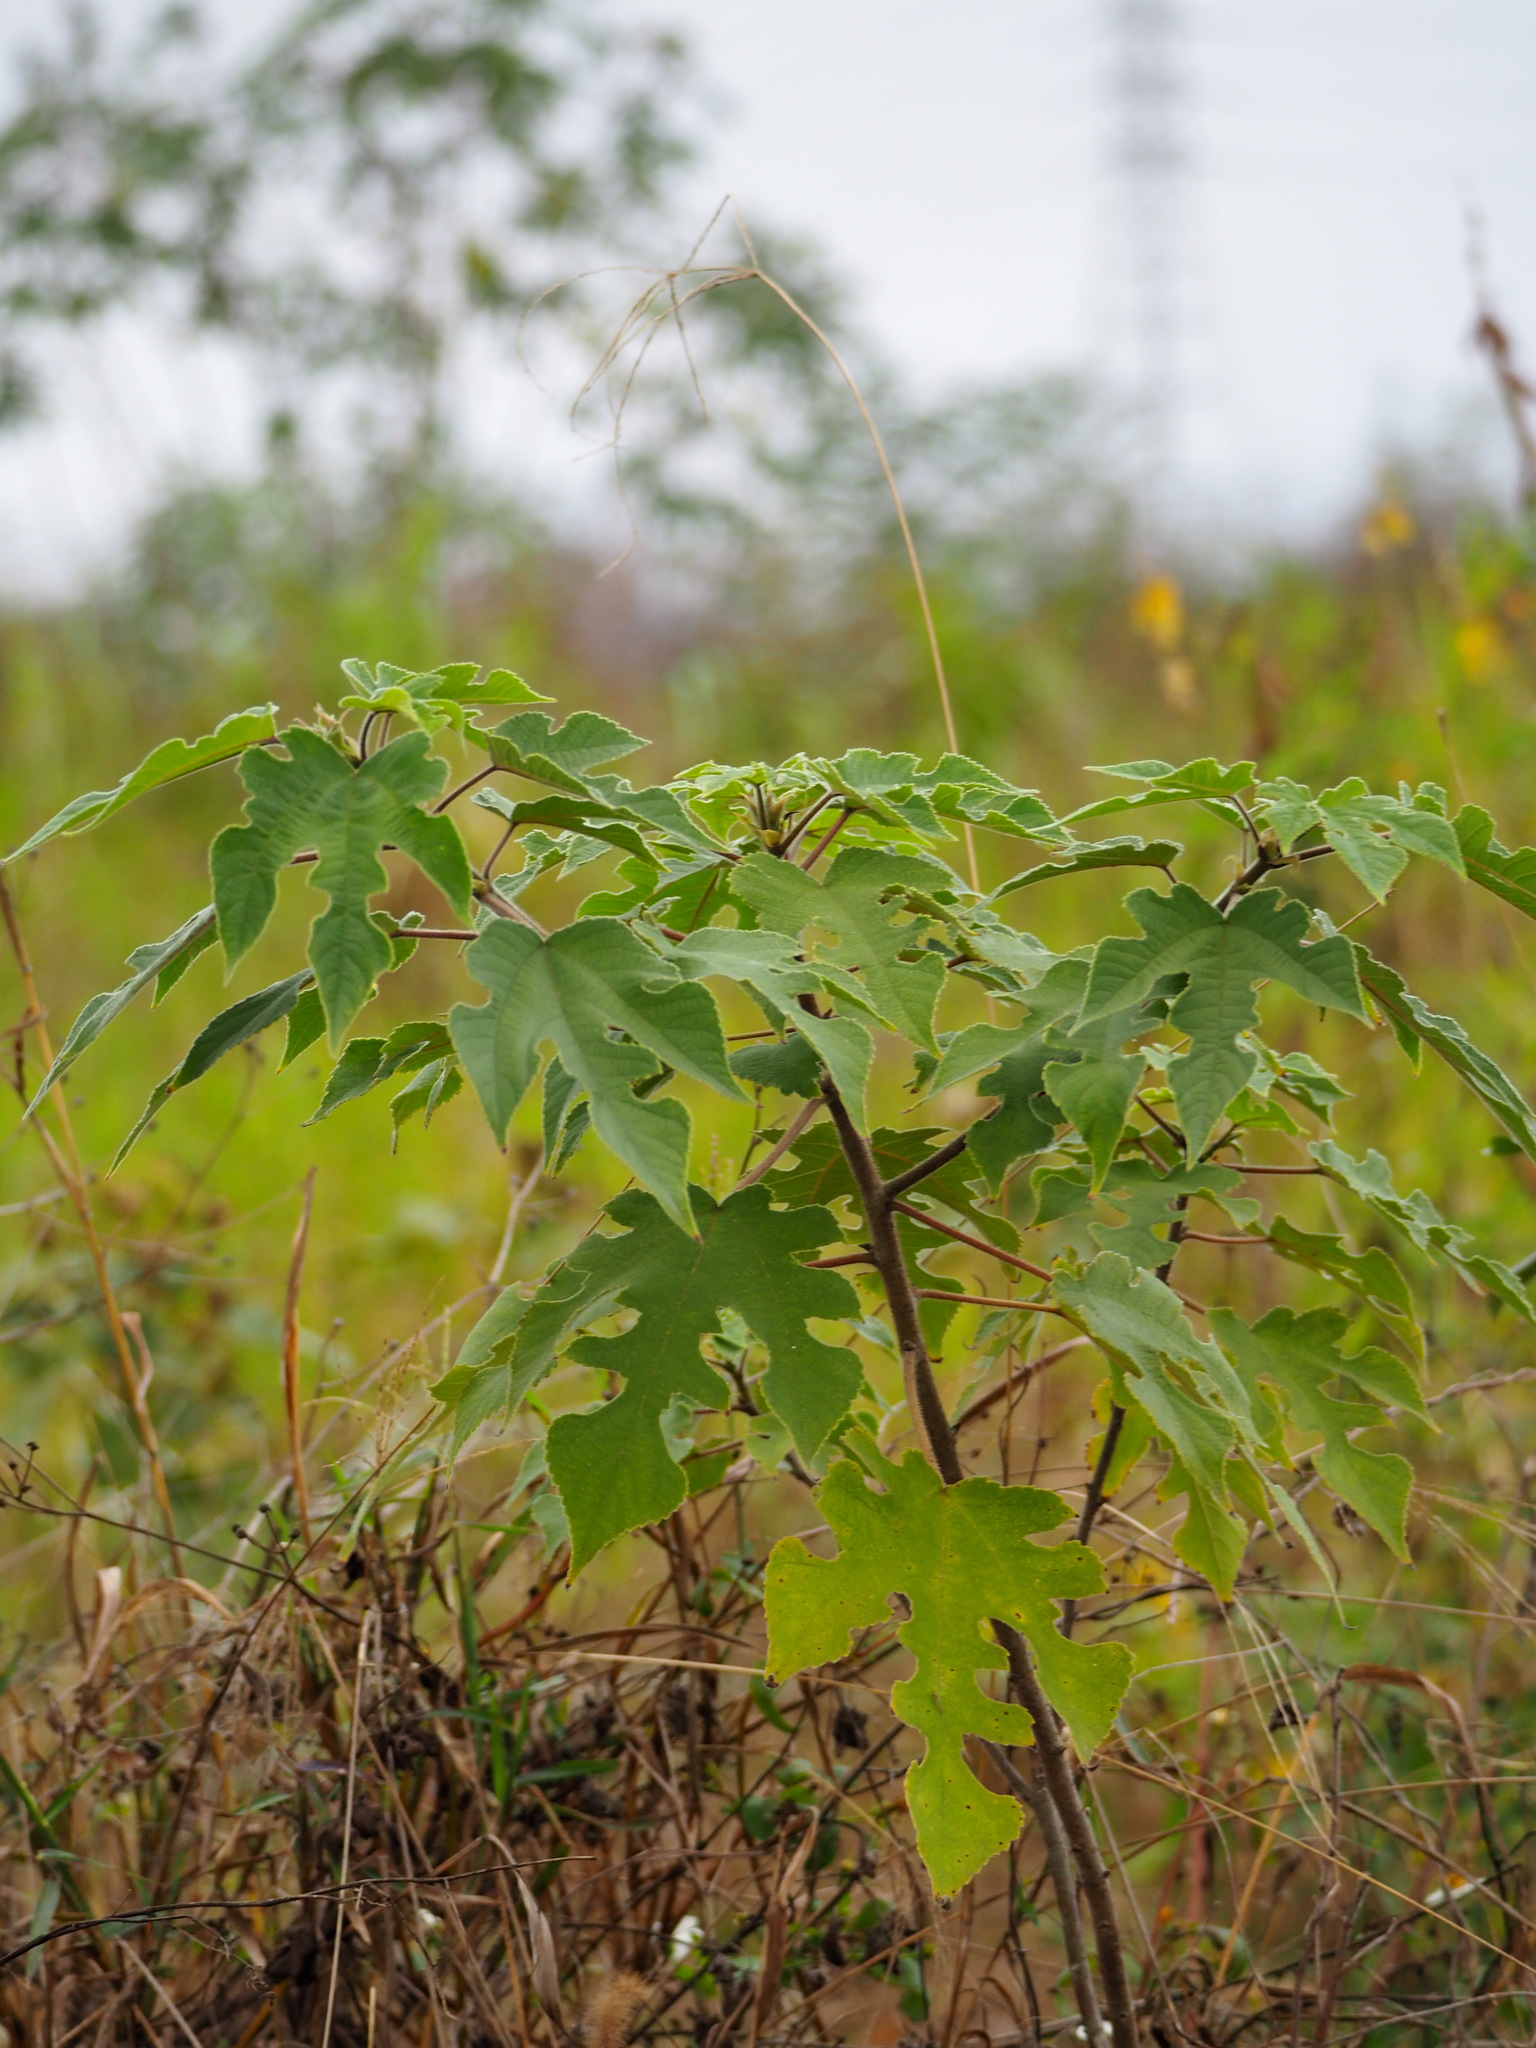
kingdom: Plantae
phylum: Tracheophyta
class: Magnoliopsida
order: Rosales
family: Moraceae
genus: Broussonetia
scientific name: Broussonetia papyrifera
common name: Paper mulberry
